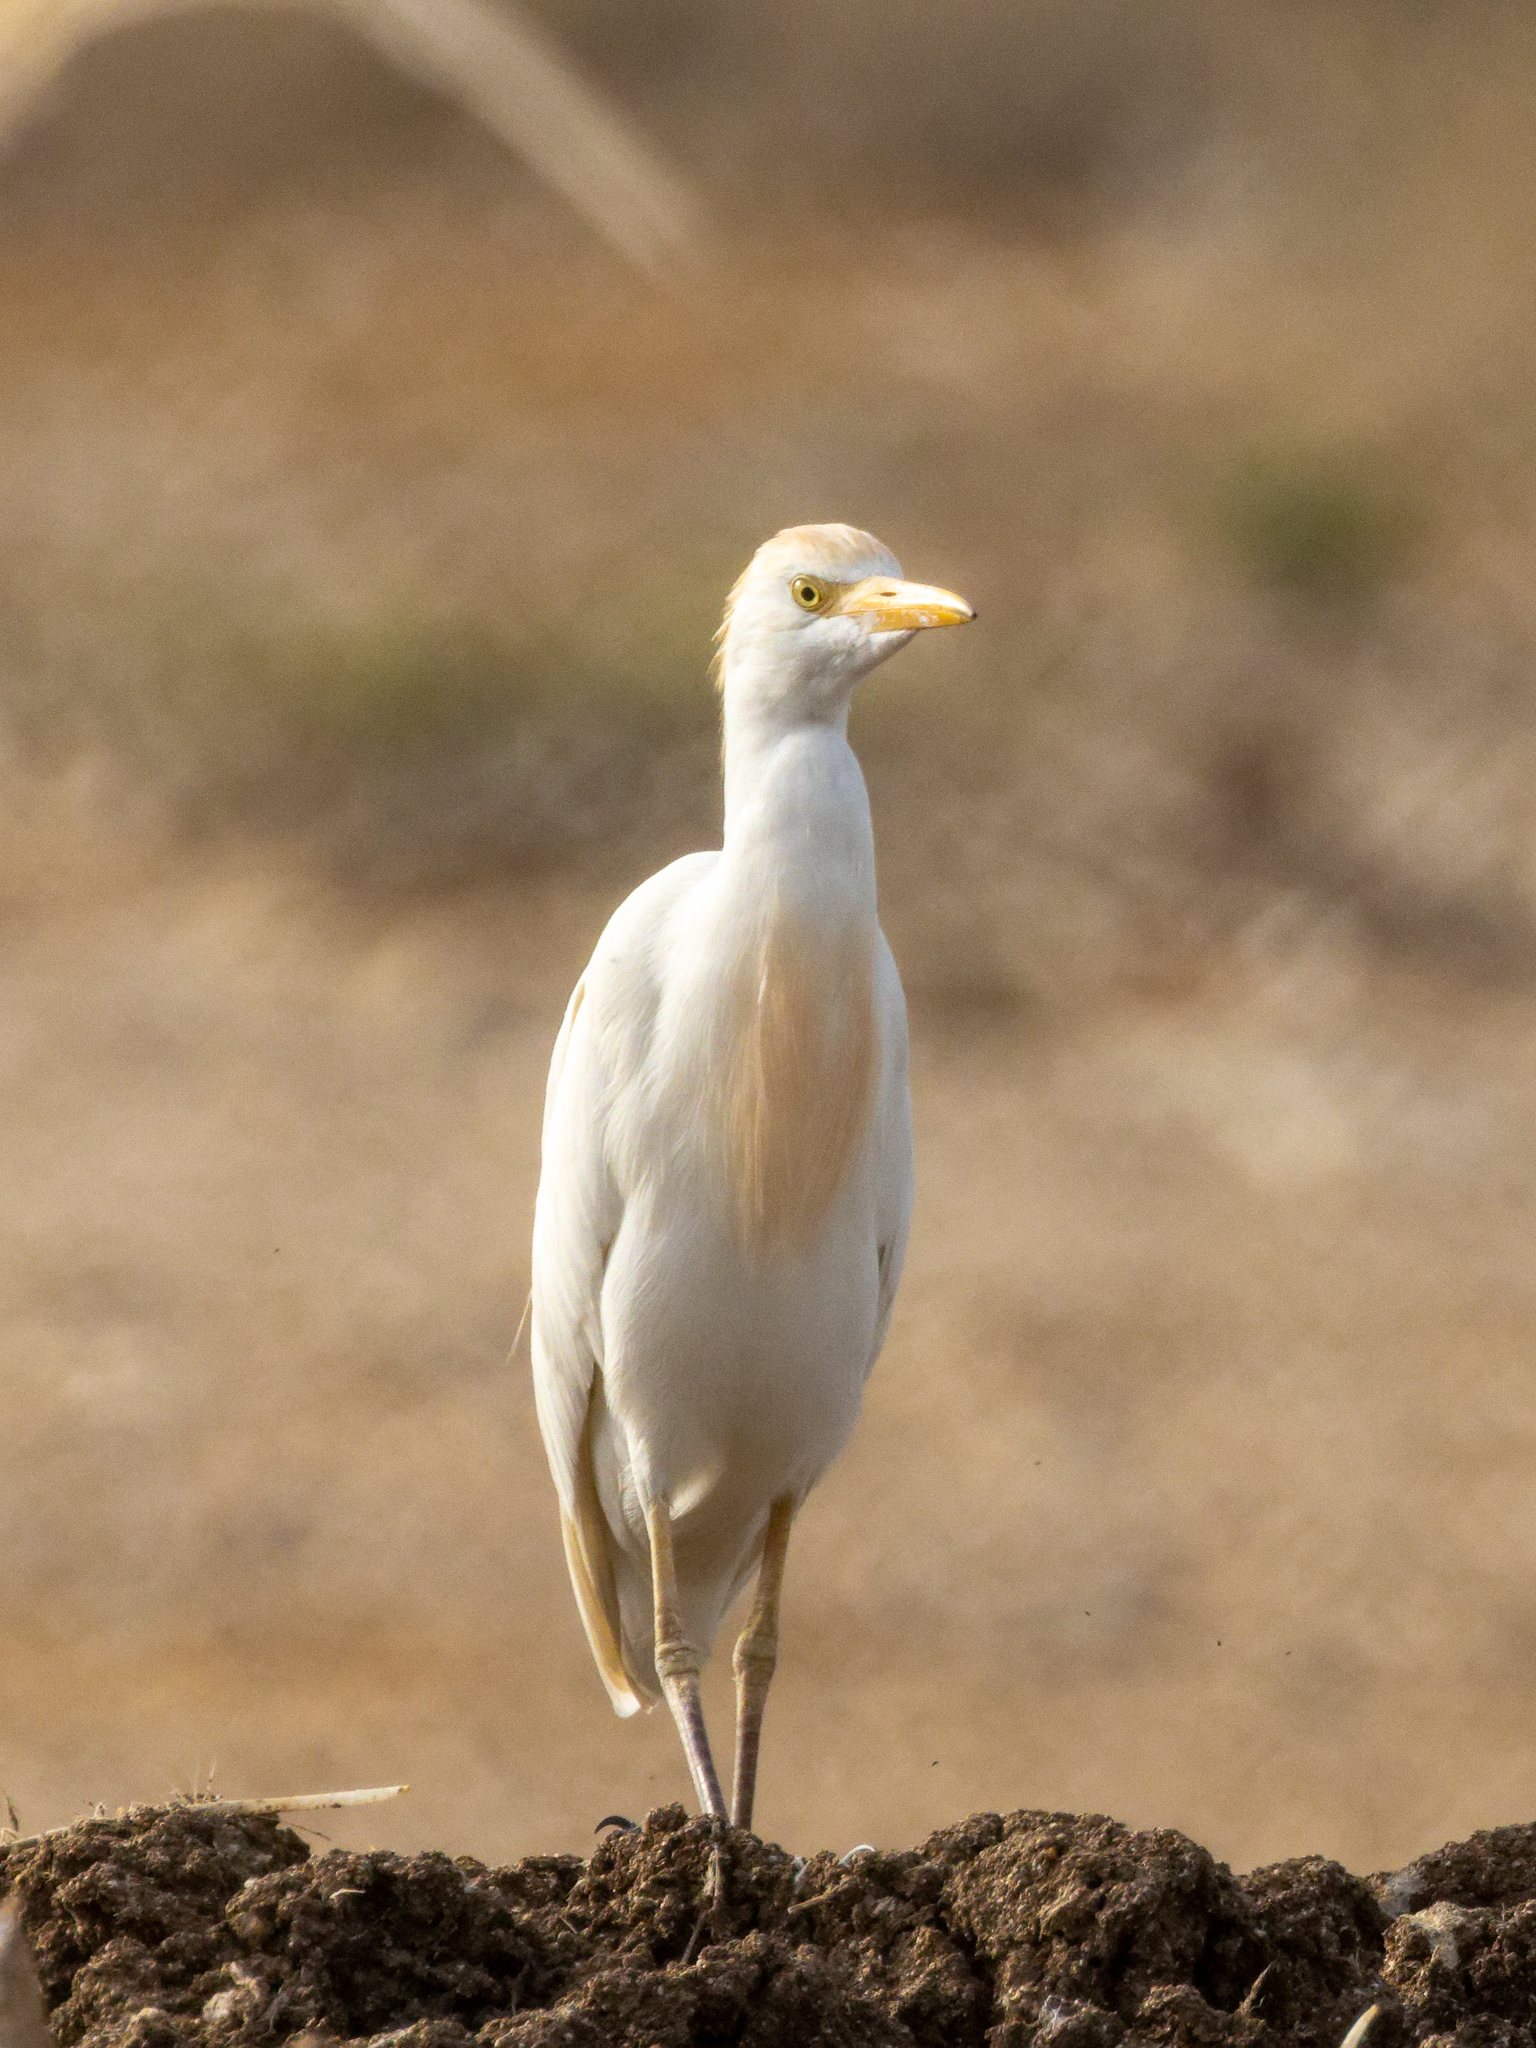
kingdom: Animalia
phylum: Chordata
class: Aves
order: Pelecaniformes
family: Ardeidae
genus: Bubulcus
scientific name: Bubulcus ibis
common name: Cattle egret
